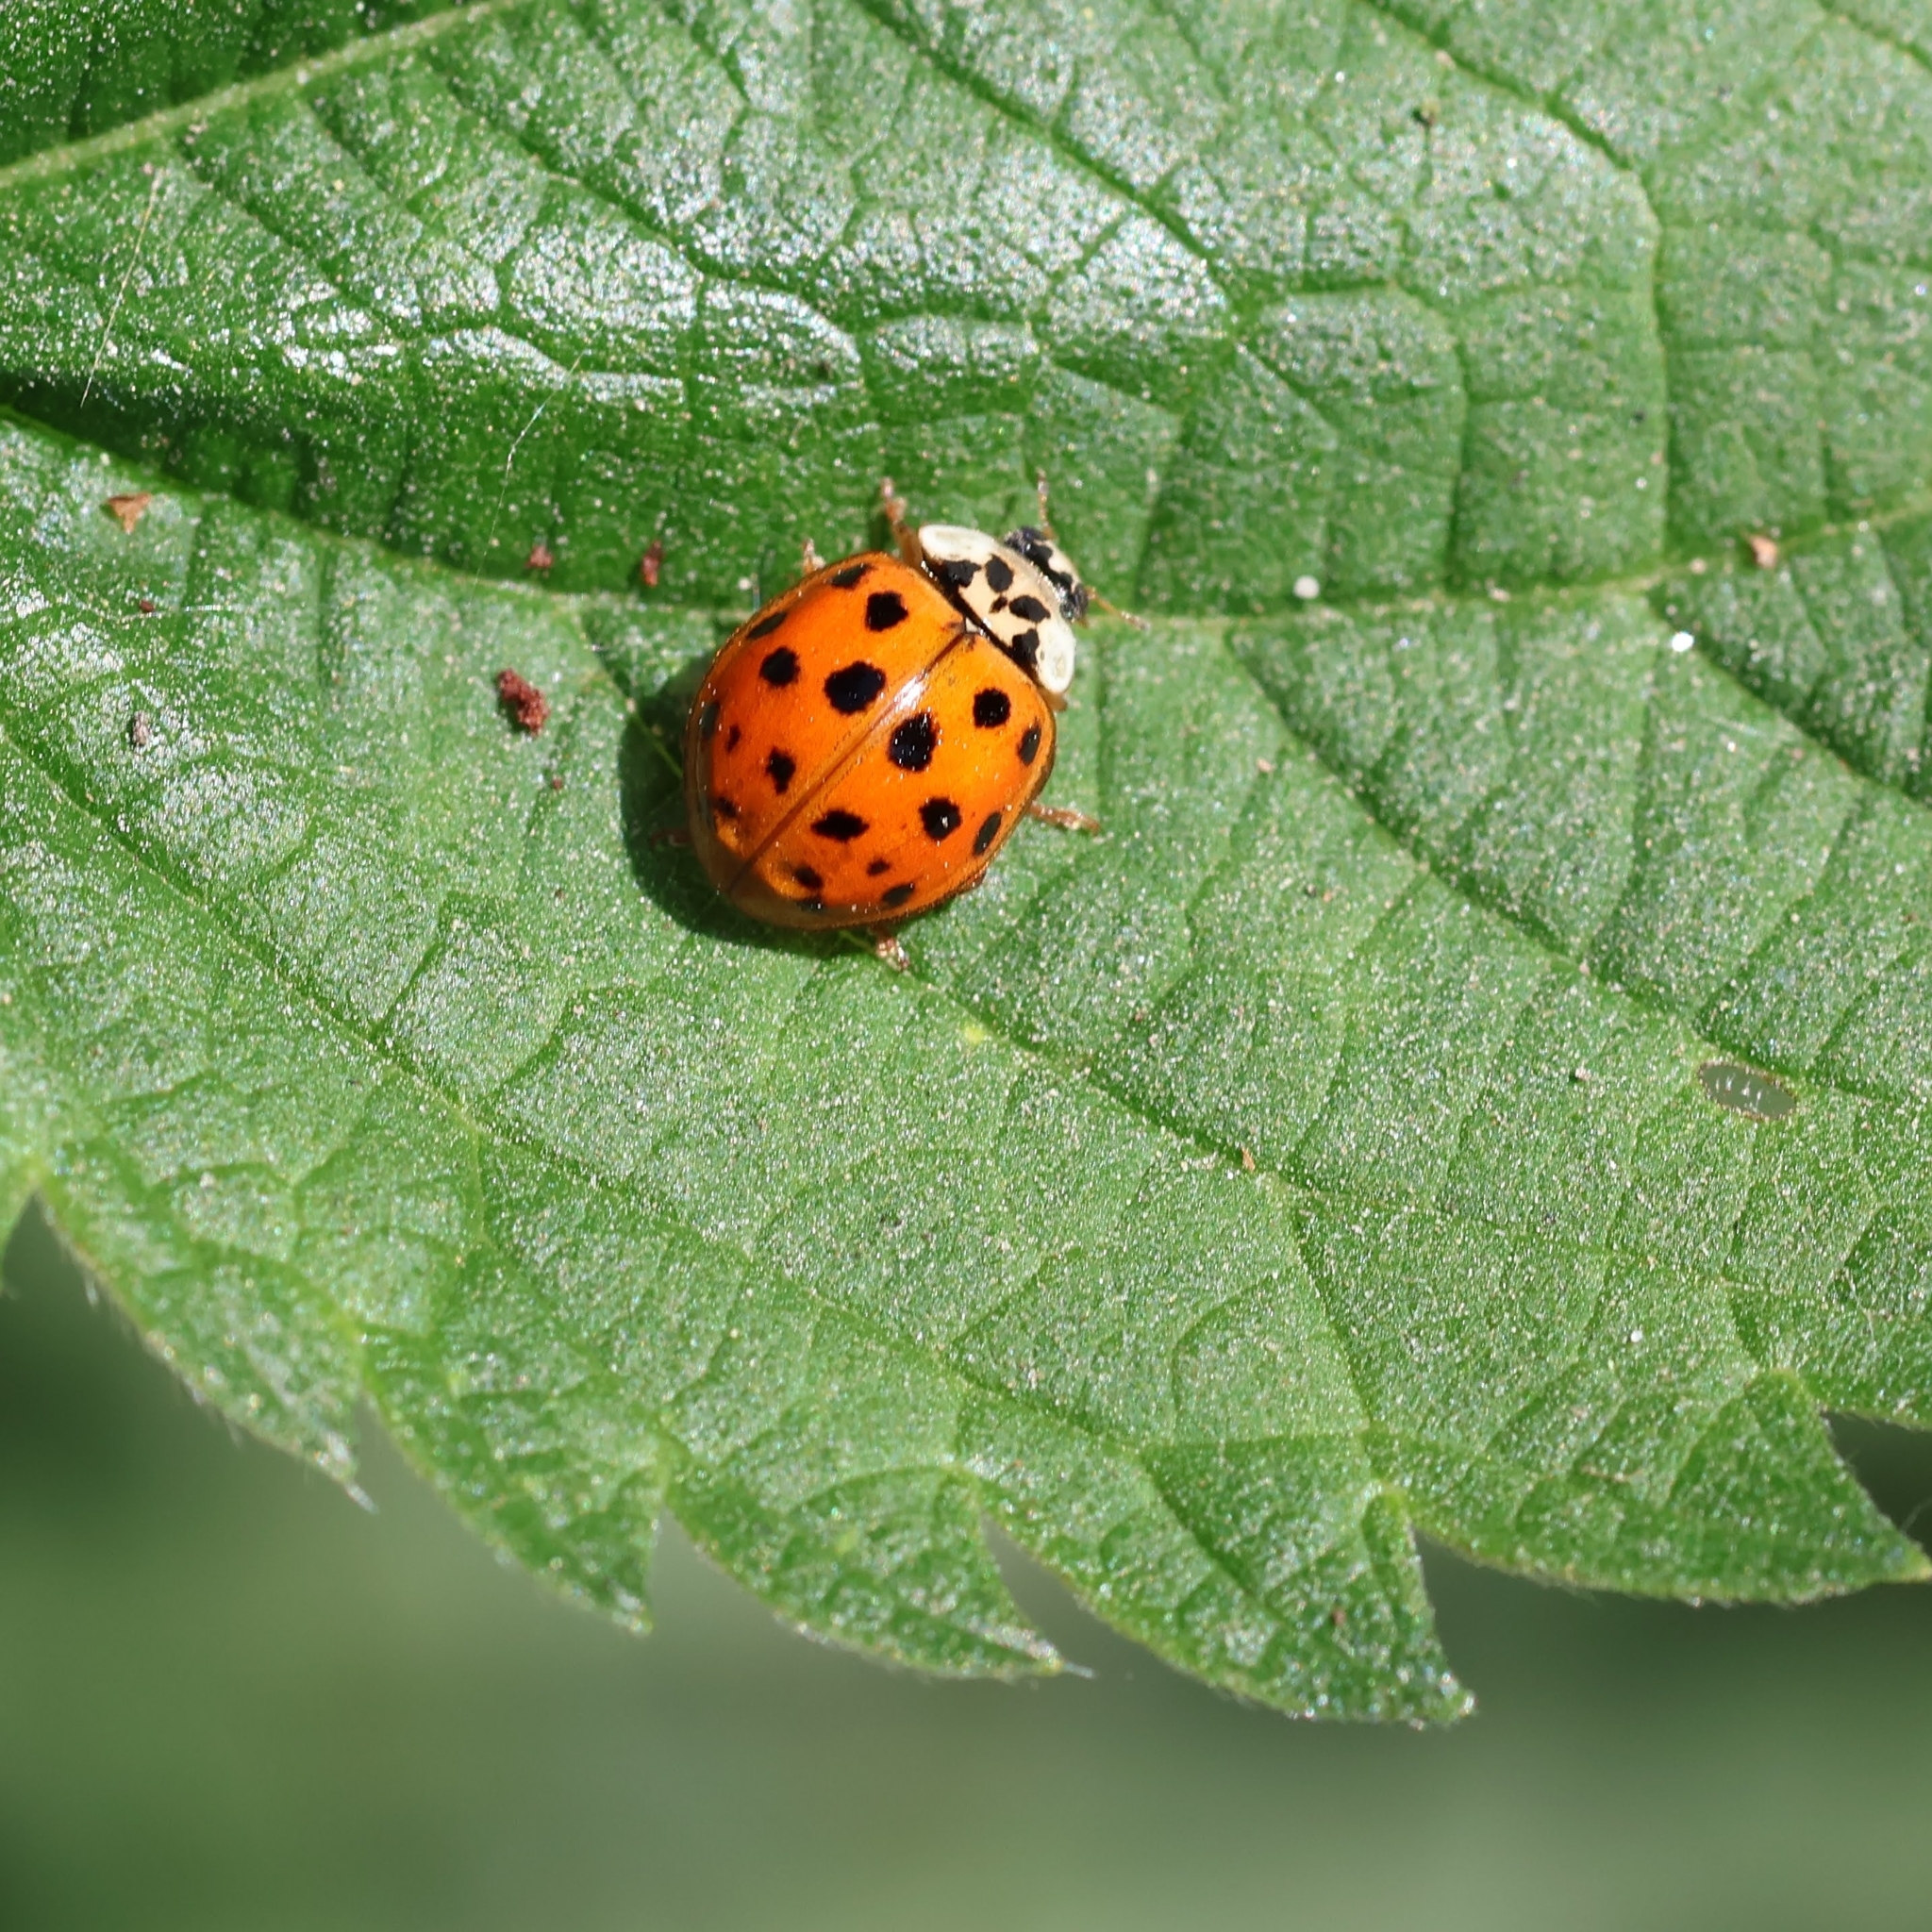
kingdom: Animalia
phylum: Arthropoda
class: Insecta
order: Coleoptera
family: Coccinellidae
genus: Harmonia
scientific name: Harmonia axyridis
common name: Harlequin ladybird
